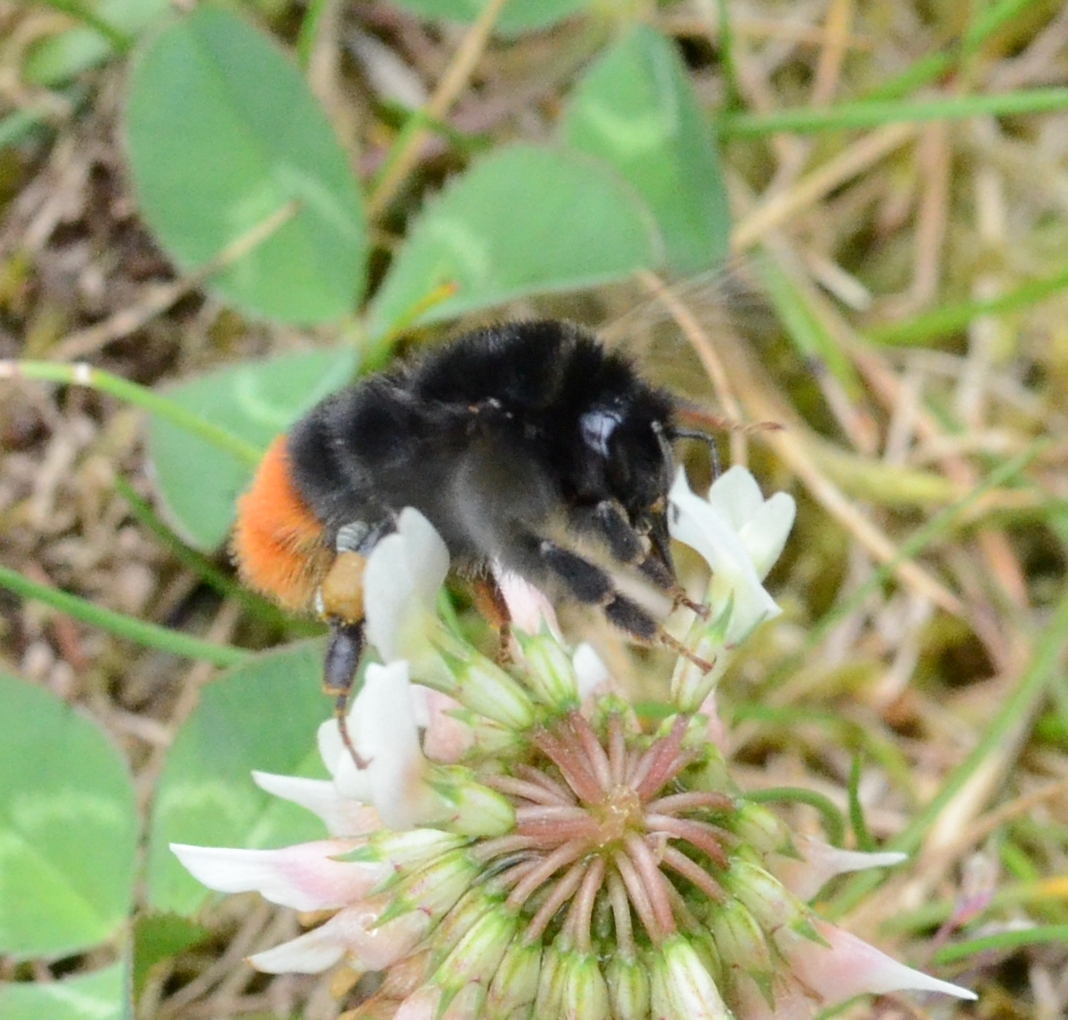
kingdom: Animalia
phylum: Arthropoda
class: Insecta
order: Hymenoptera
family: Apidae
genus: Bombus
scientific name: Bombus lapidarius
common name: Large red-tailed humble-bee
